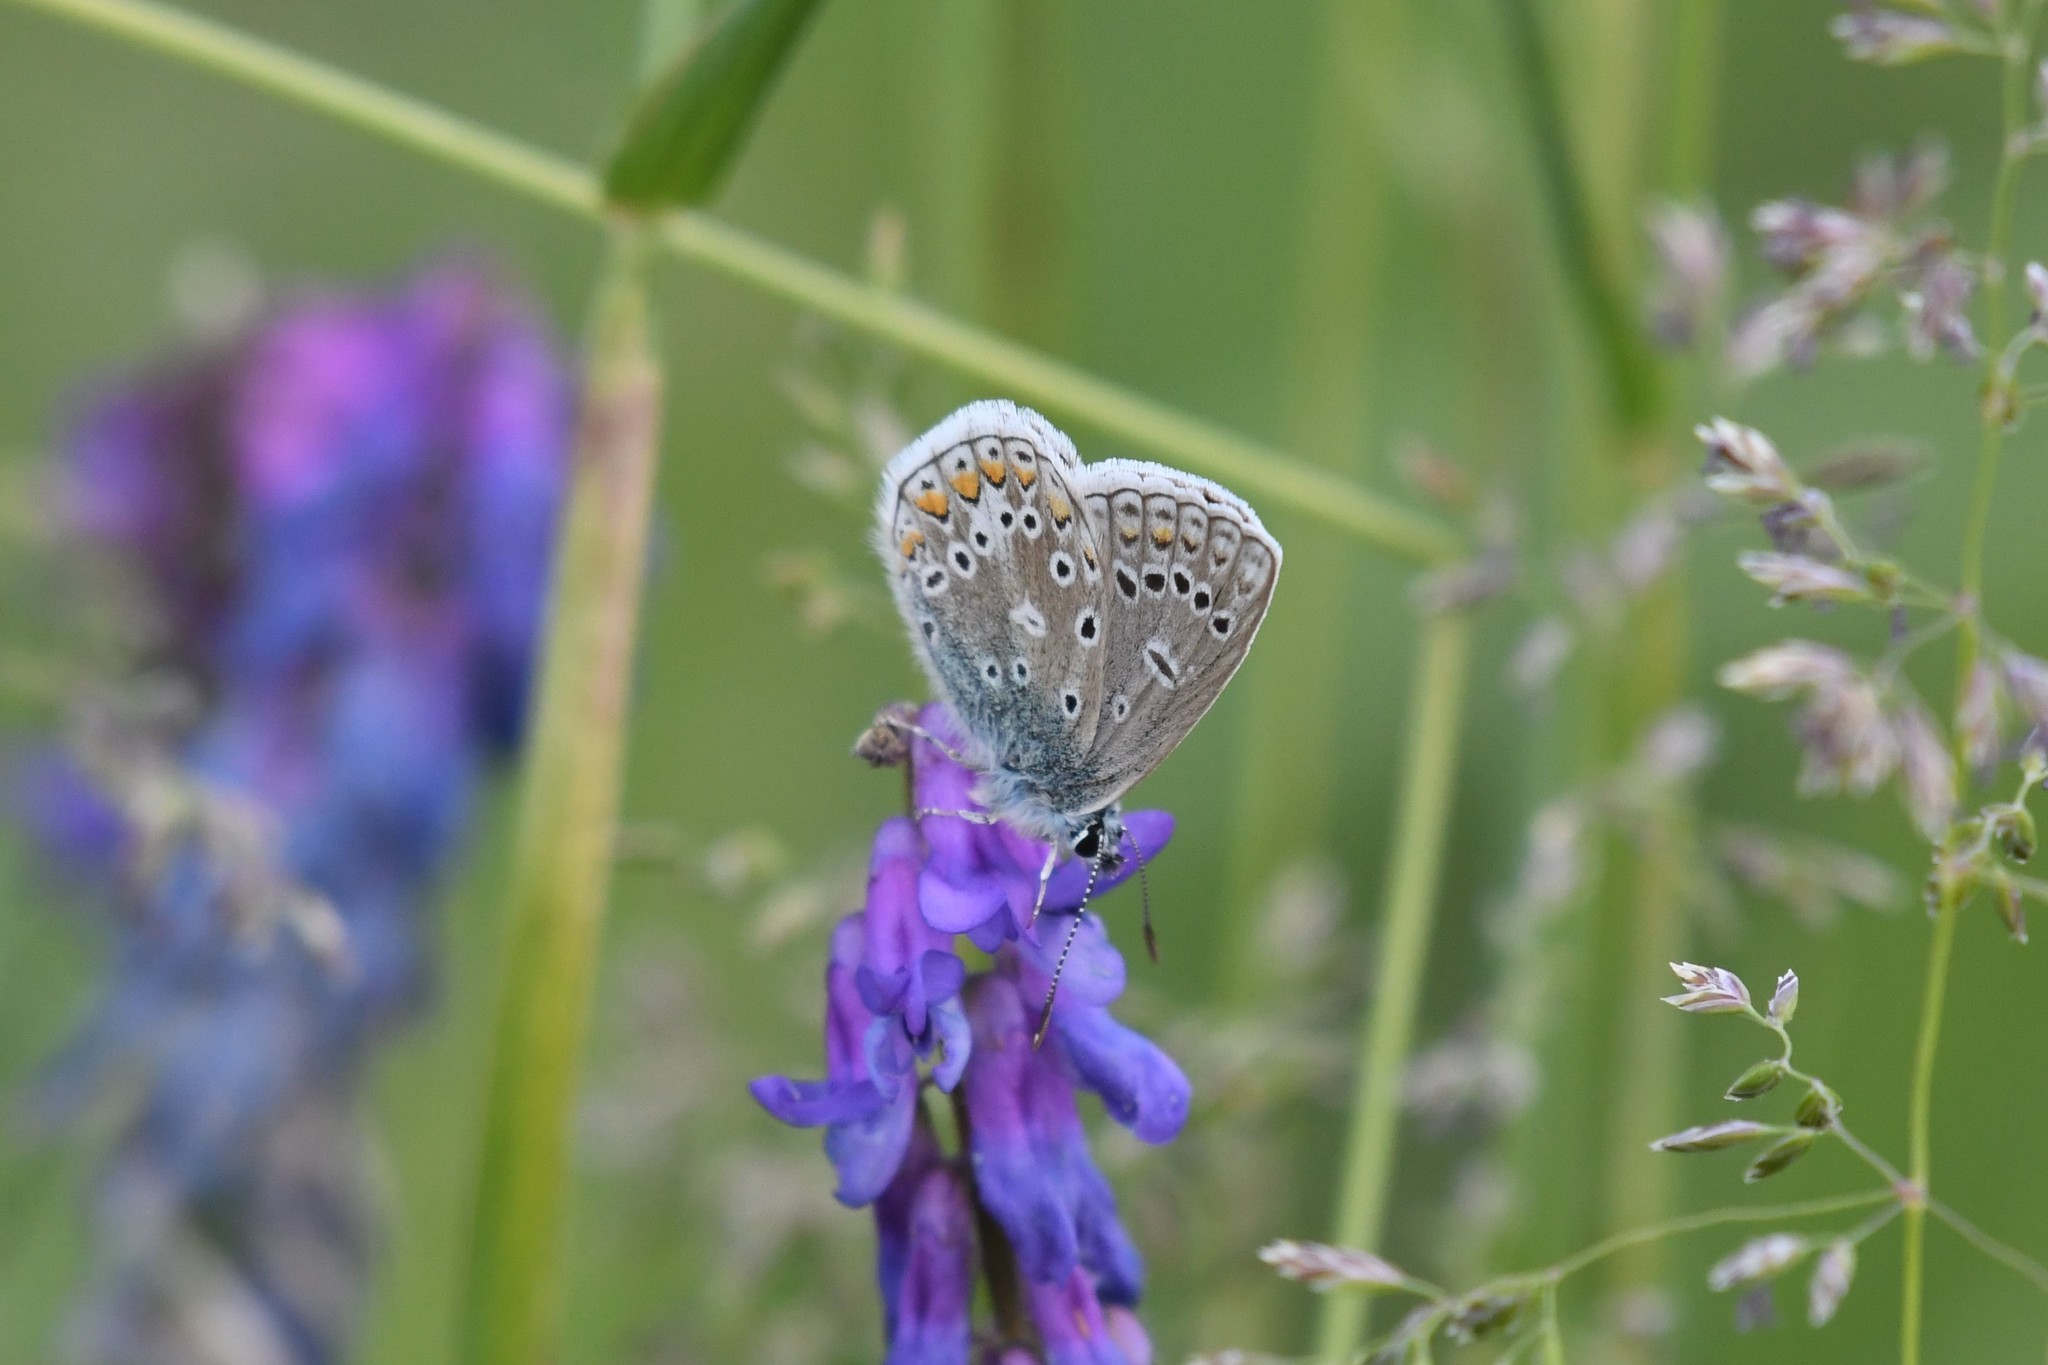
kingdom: Animalia
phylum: Arthropoda
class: Insecta
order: Lepidoptera
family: Lycaenidae
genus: Polyommatus
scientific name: Polyommatus icarus
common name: Common blue
